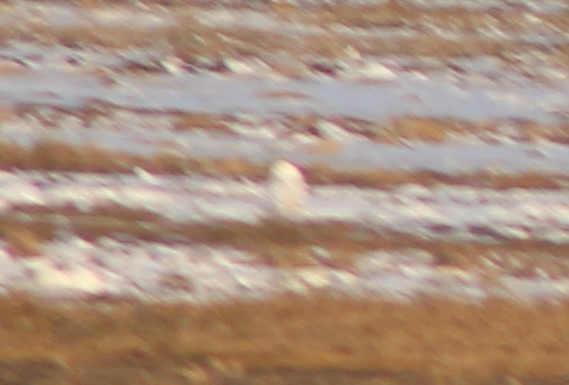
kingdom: Animalia
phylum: Chordata
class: Aves
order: Strigiformes
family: Strigidae
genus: Bubo
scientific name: Bubo scandiacus
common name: Snowy owl
